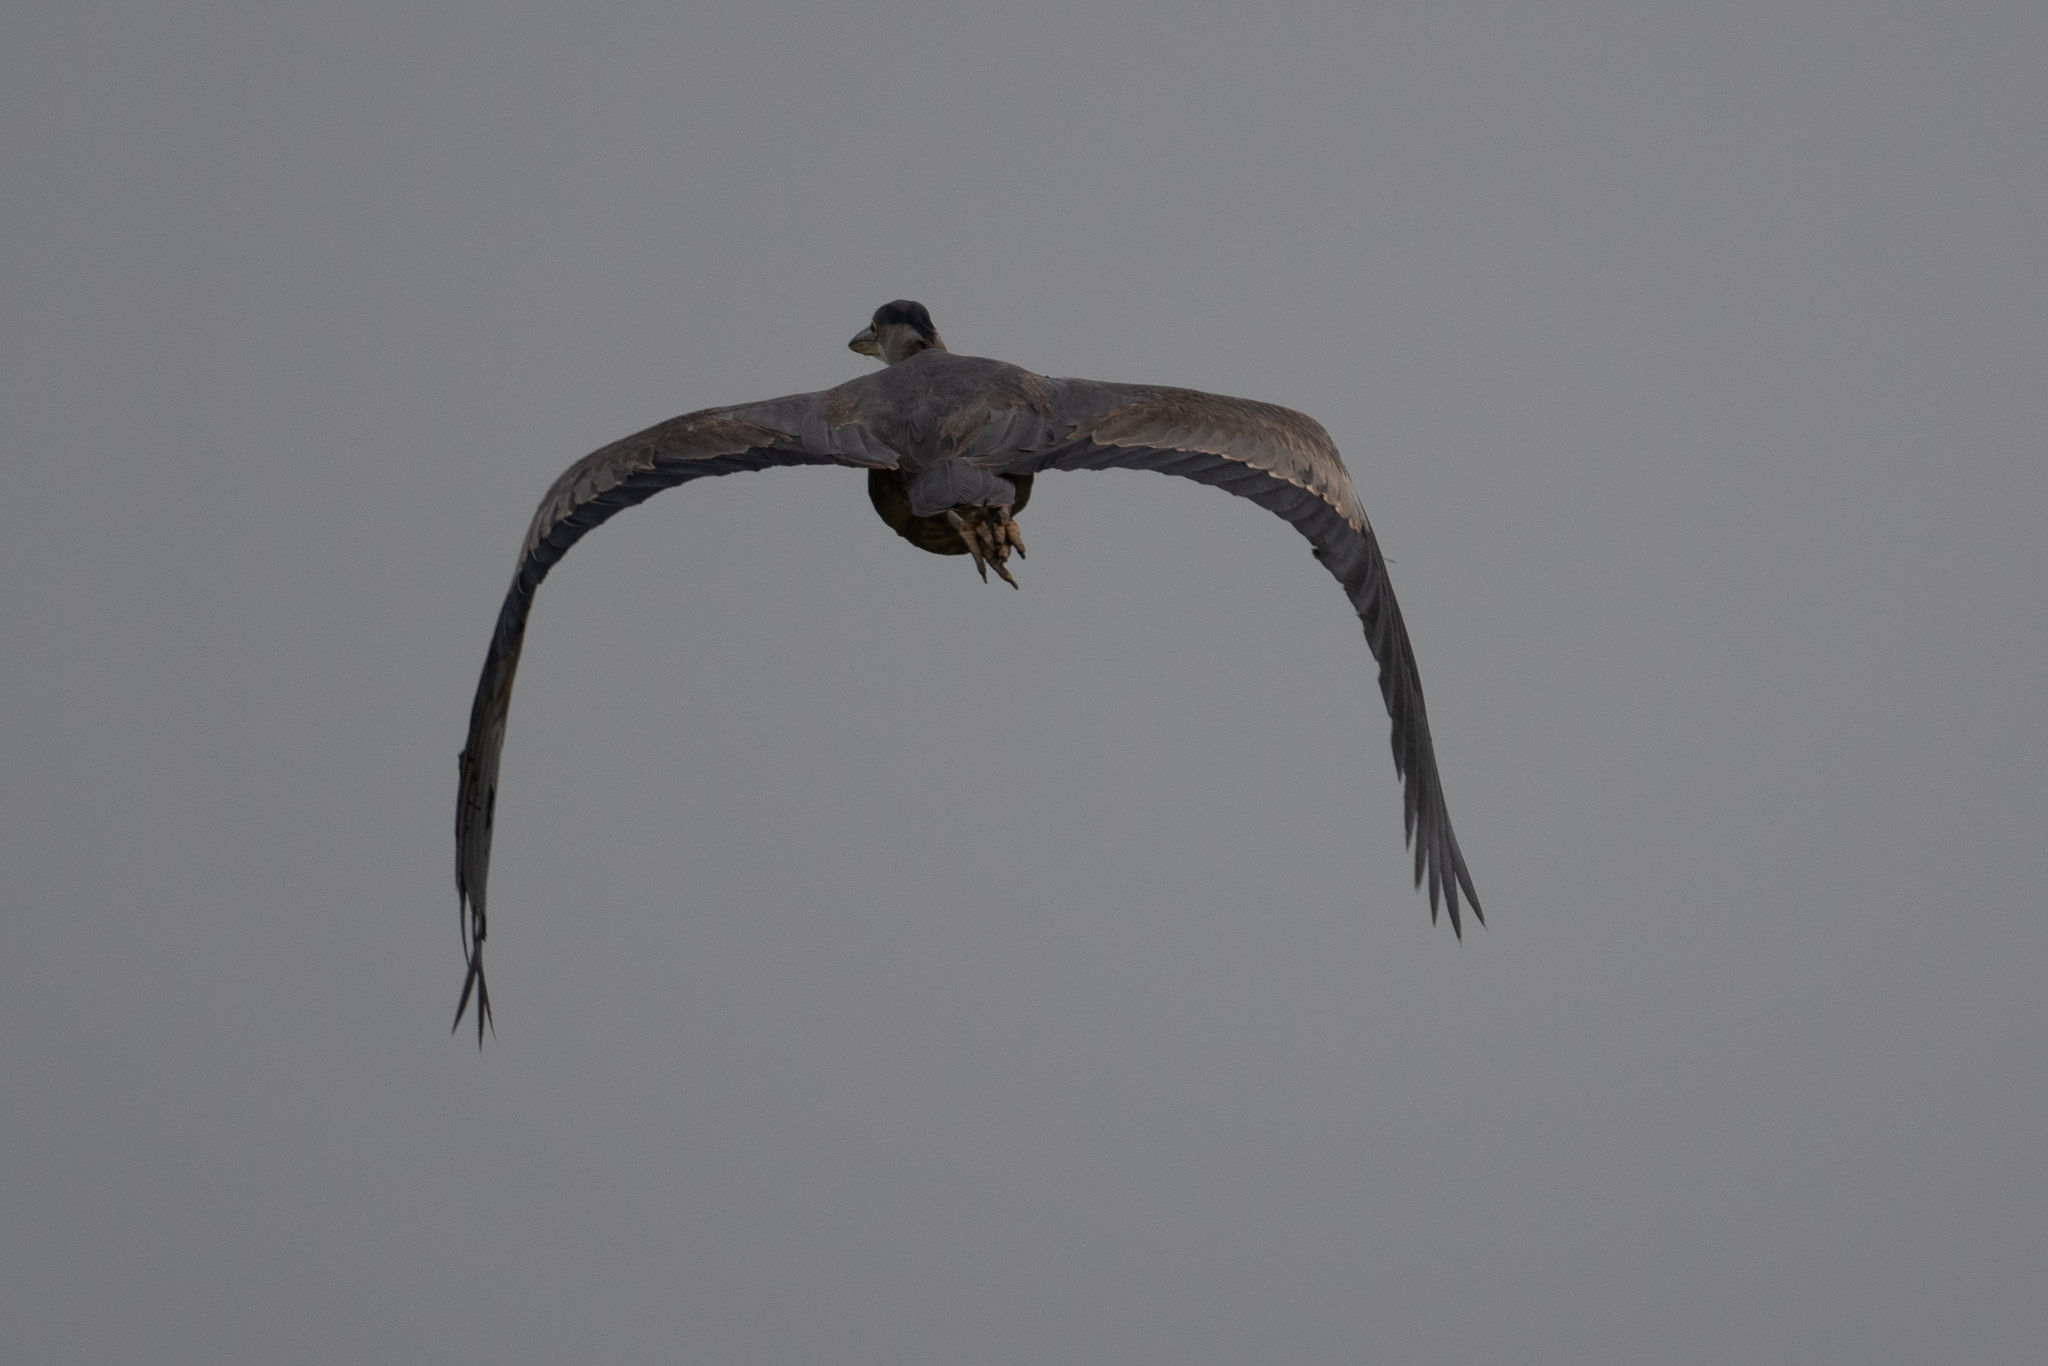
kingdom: Animalia
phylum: Chordata
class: Aves
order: Pelecaniformes
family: Ardeidae
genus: Ardea
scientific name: Ardea herodias
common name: Great blue heron
